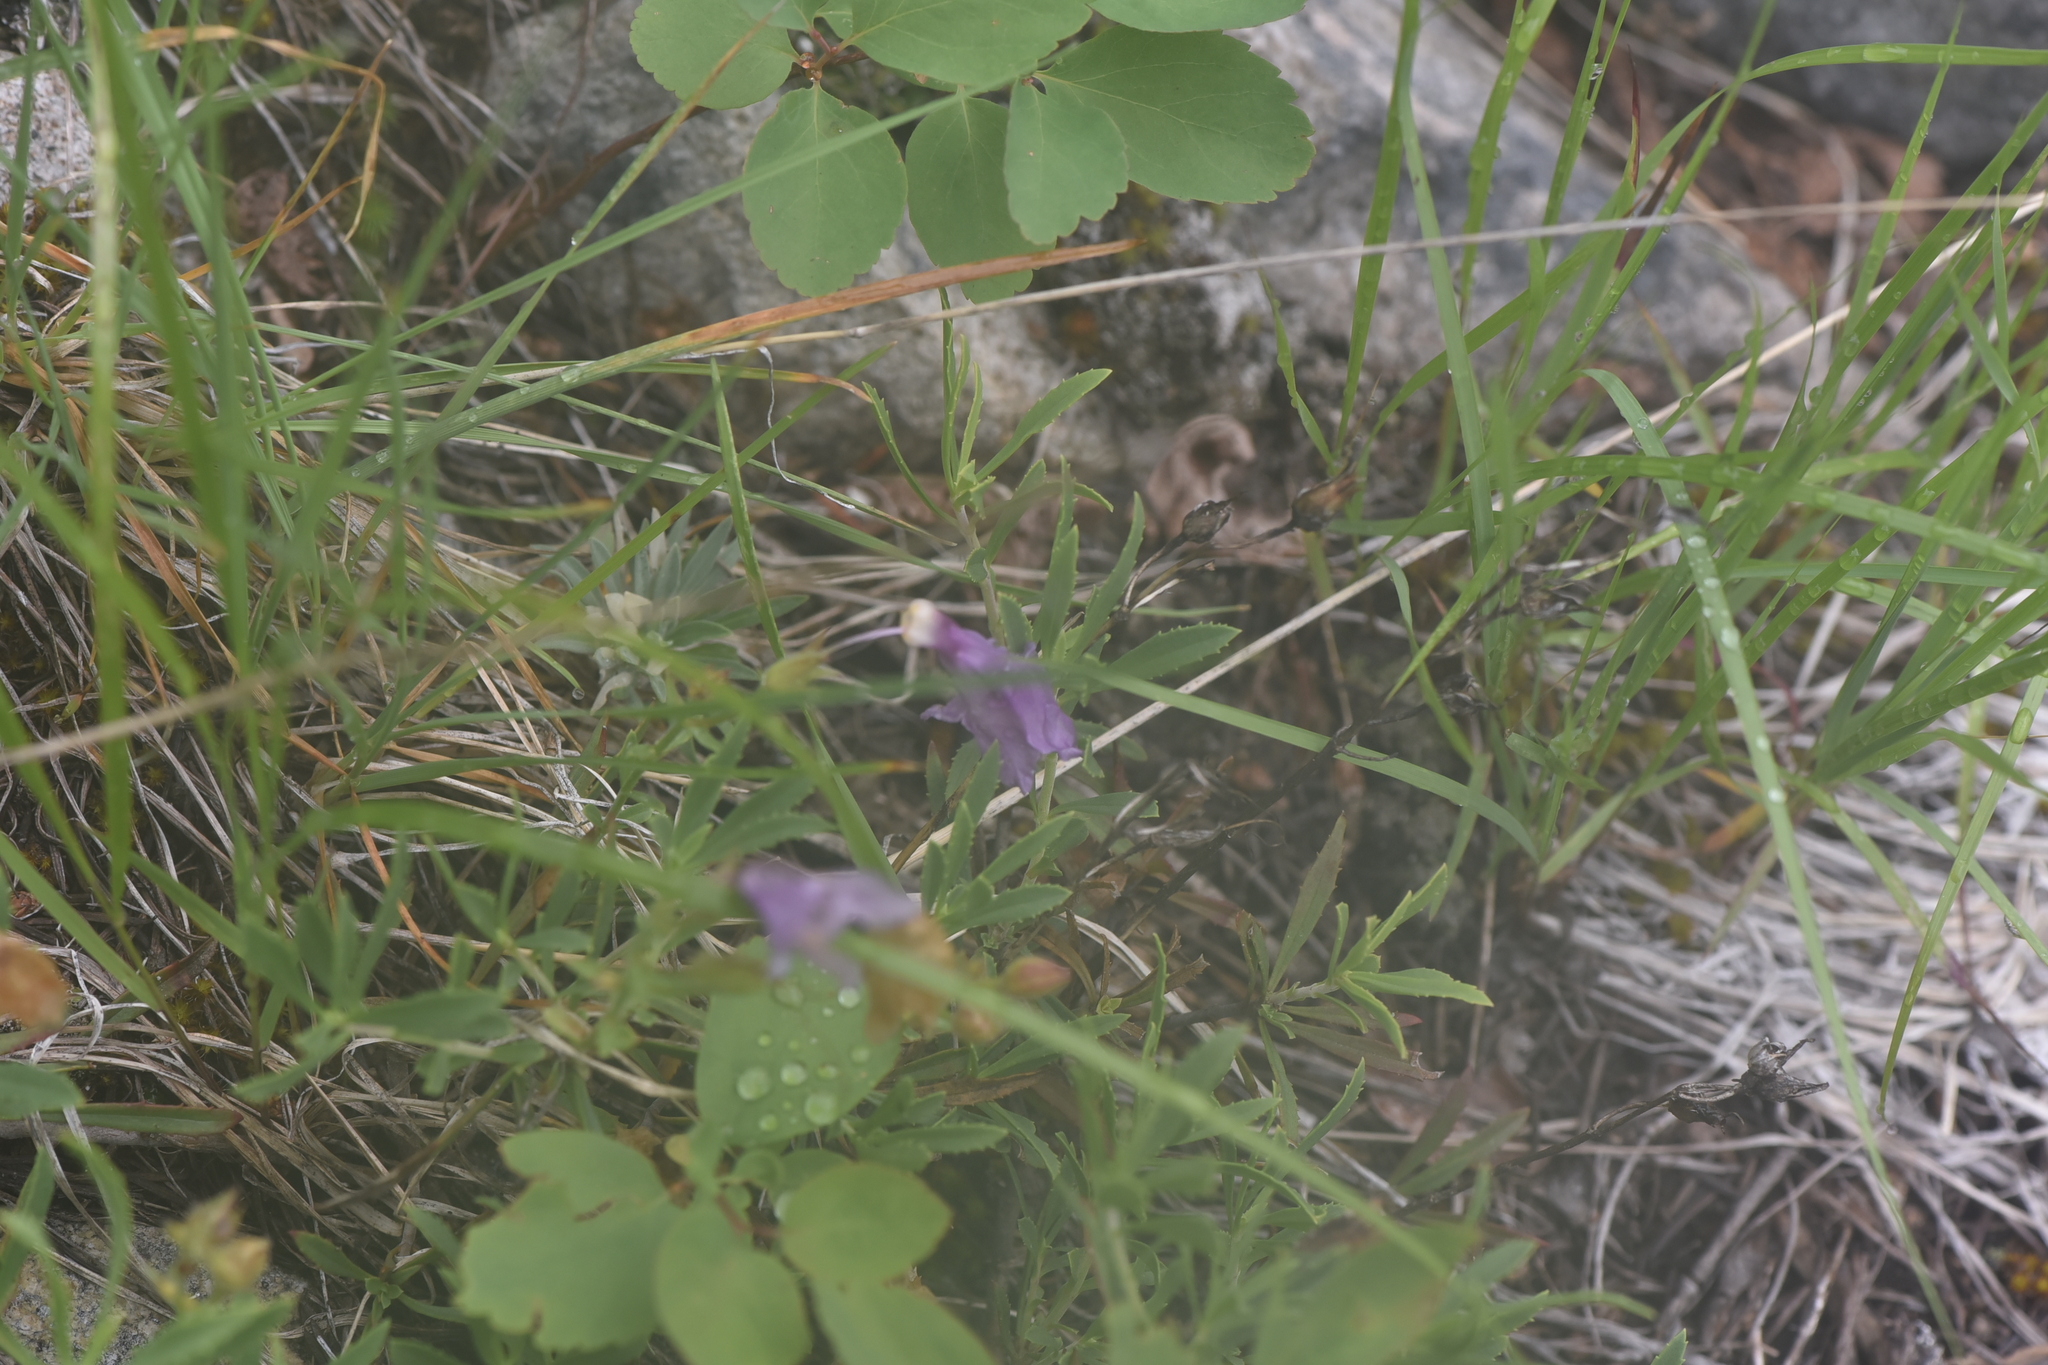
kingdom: Plantae
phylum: Tracheophyta
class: Magnoliopsida
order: Lamiales
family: Plantaginaceae
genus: Penstemon
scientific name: Penstemon fruticosus
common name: Bush penstemon
